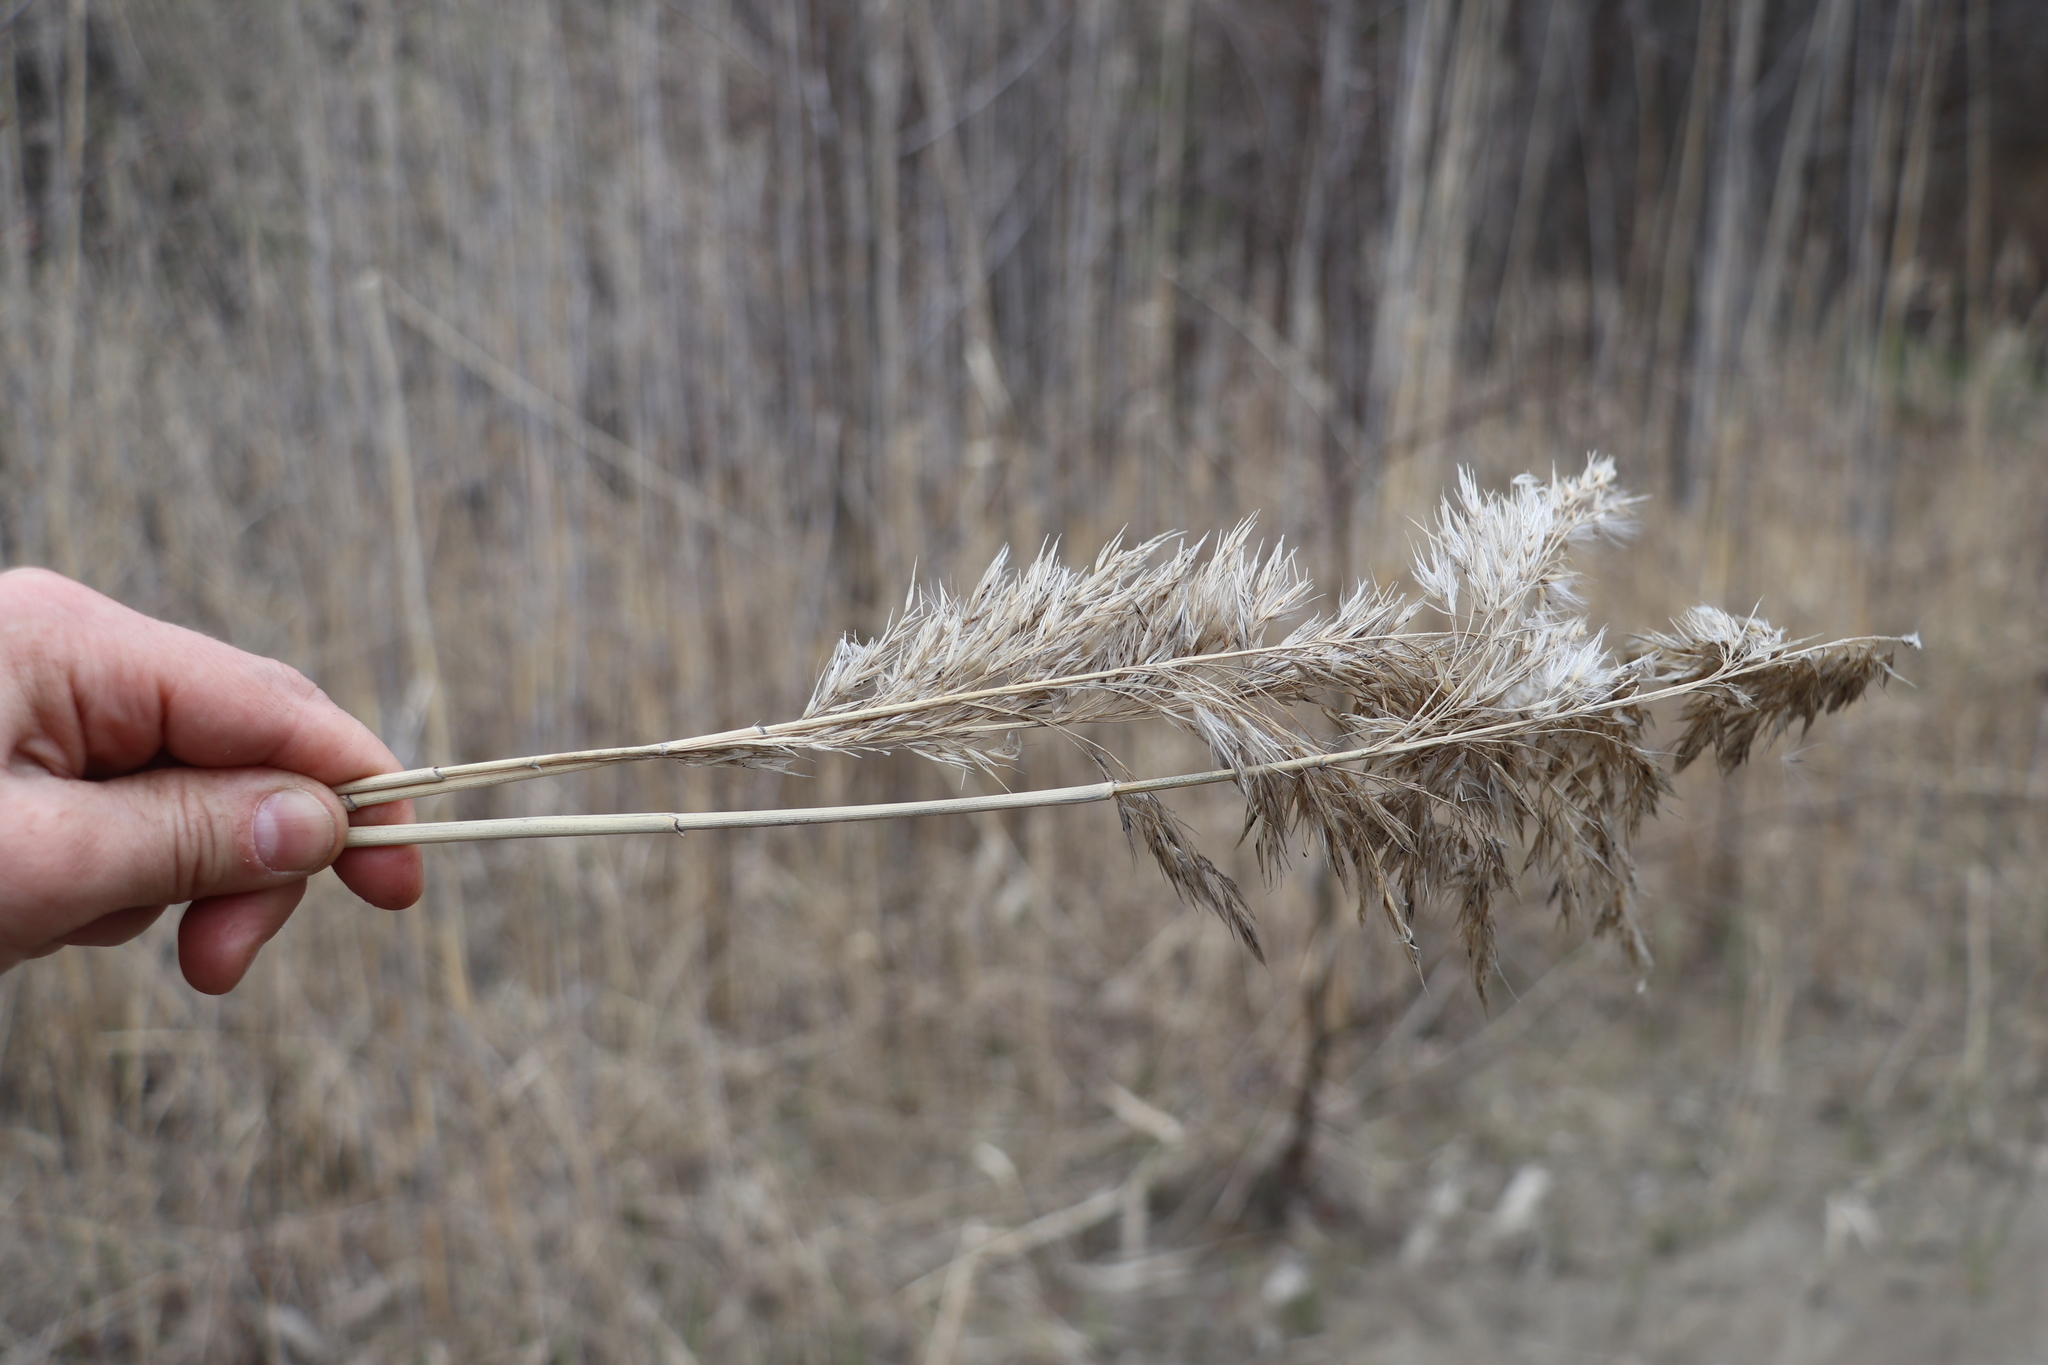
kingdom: Plantae
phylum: Tracheophyta
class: Liliopsida
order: Poales
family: Poaceae
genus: Phragmites
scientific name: Phragmites australis
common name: Common reed
